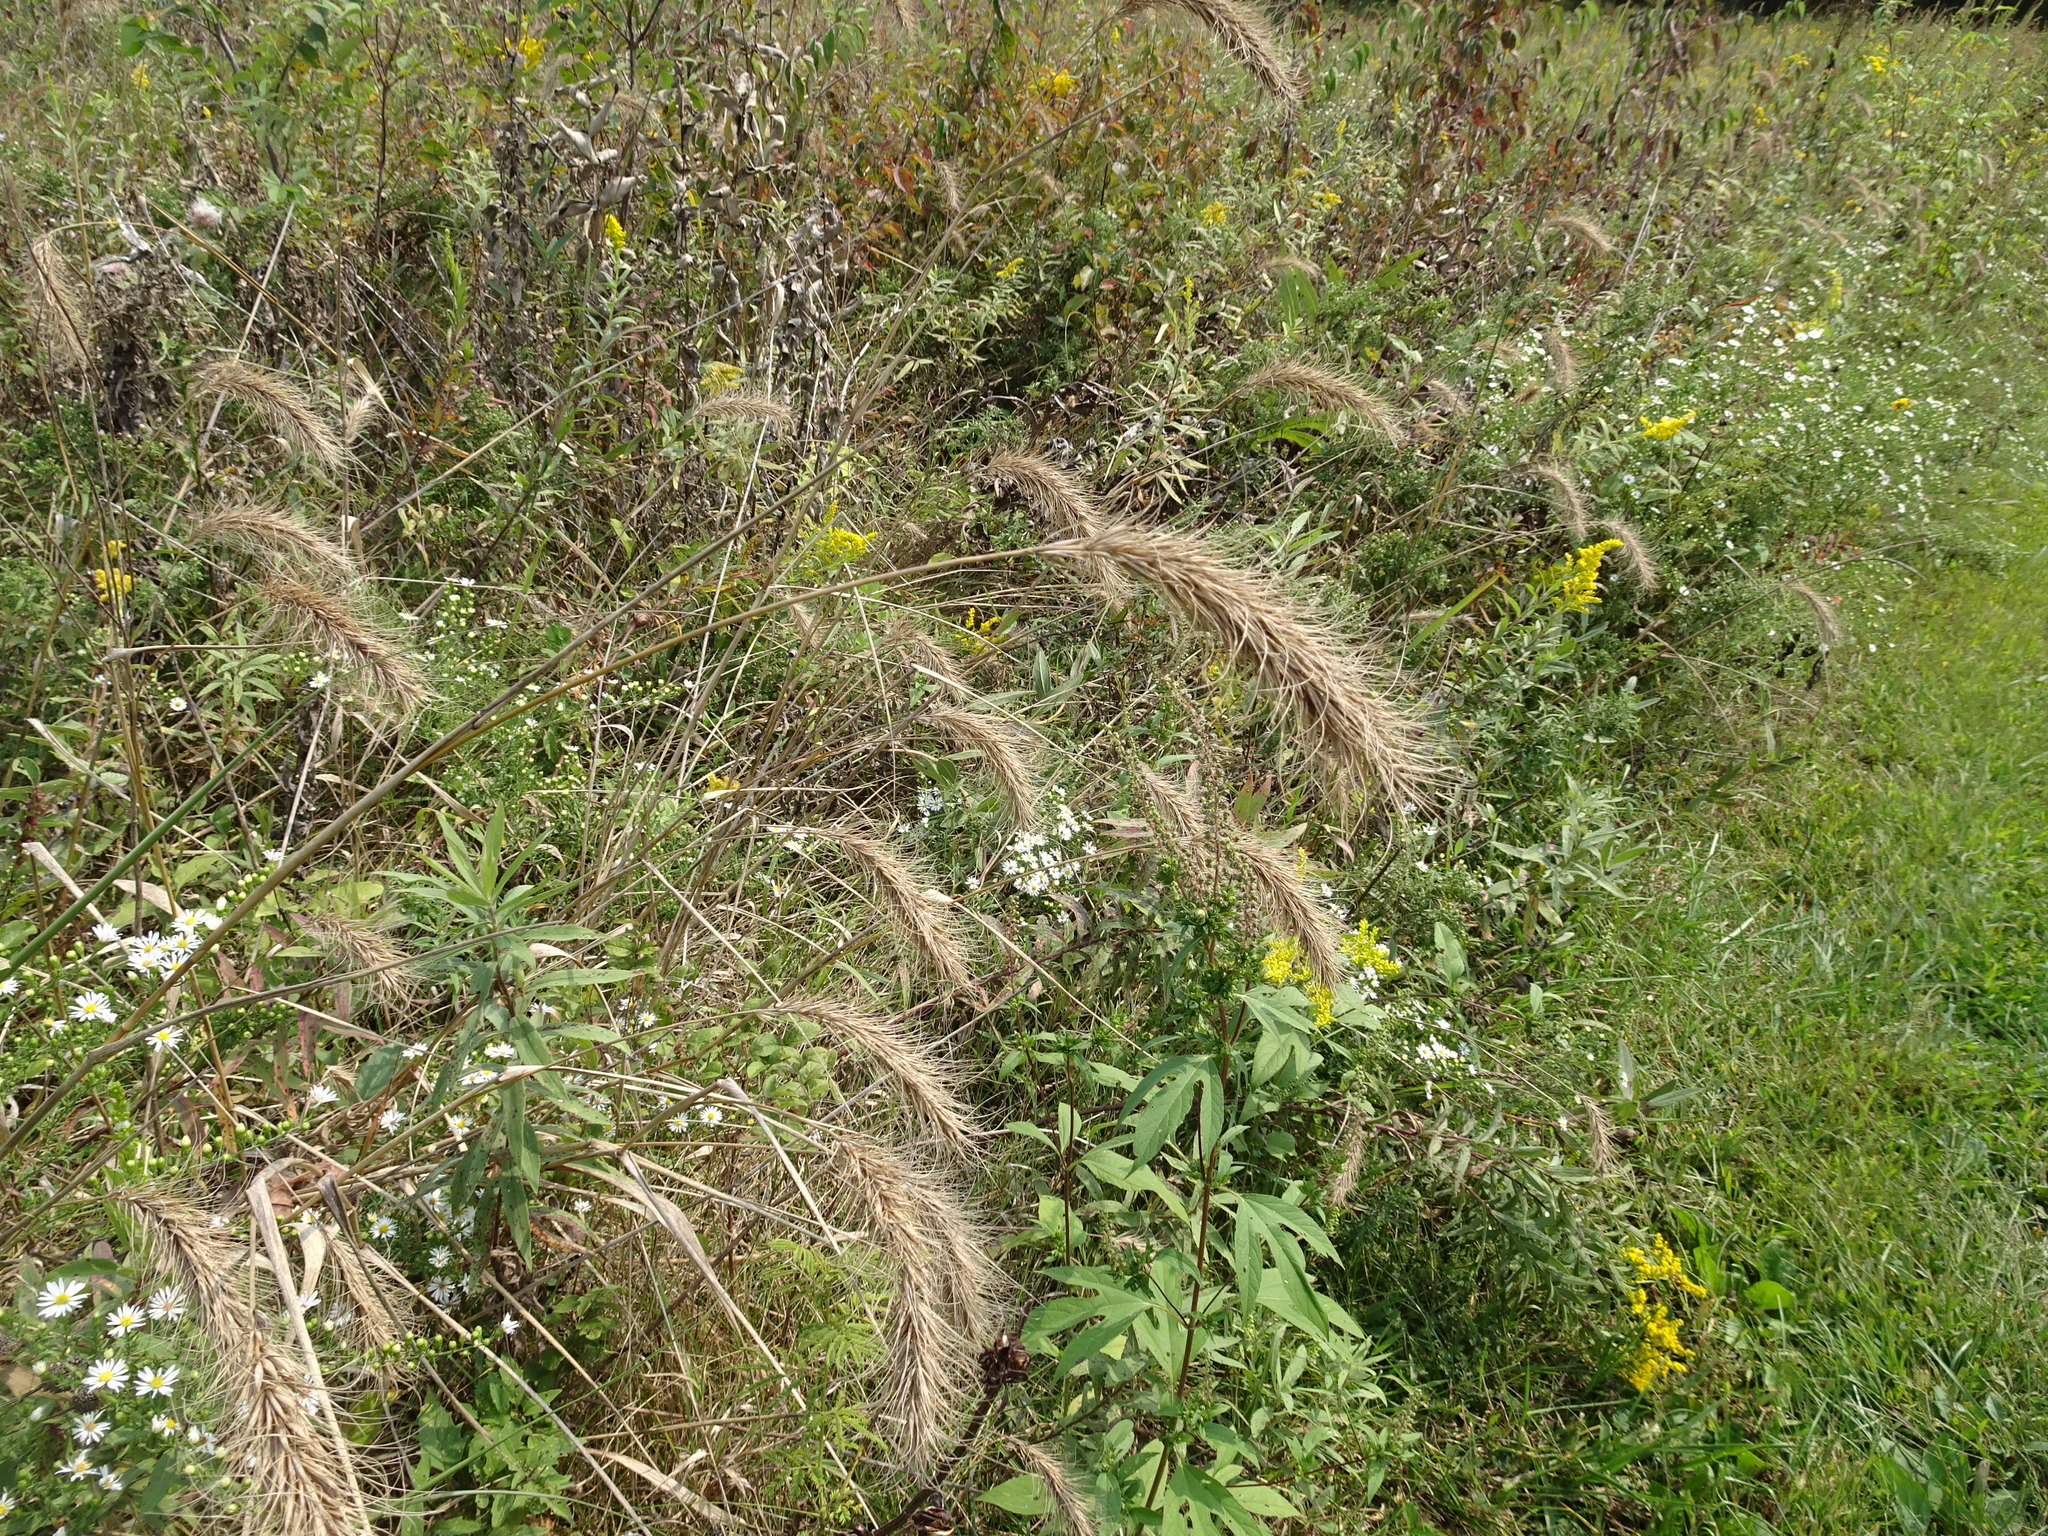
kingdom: Plantae
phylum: Tracheophyta
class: Liliopsida
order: Poales
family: Poaceae
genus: Elymus
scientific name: Elymus canadensis
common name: Canada wild rye
